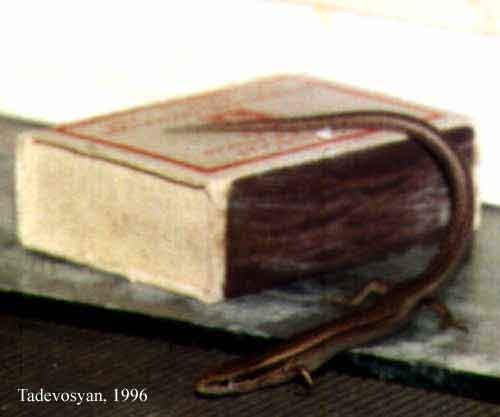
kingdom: Animalia
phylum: Chordata
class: Squamata
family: Scincidae
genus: Ablepharus
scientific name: Ablepharus bivittatus
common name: Twin-striped skink
